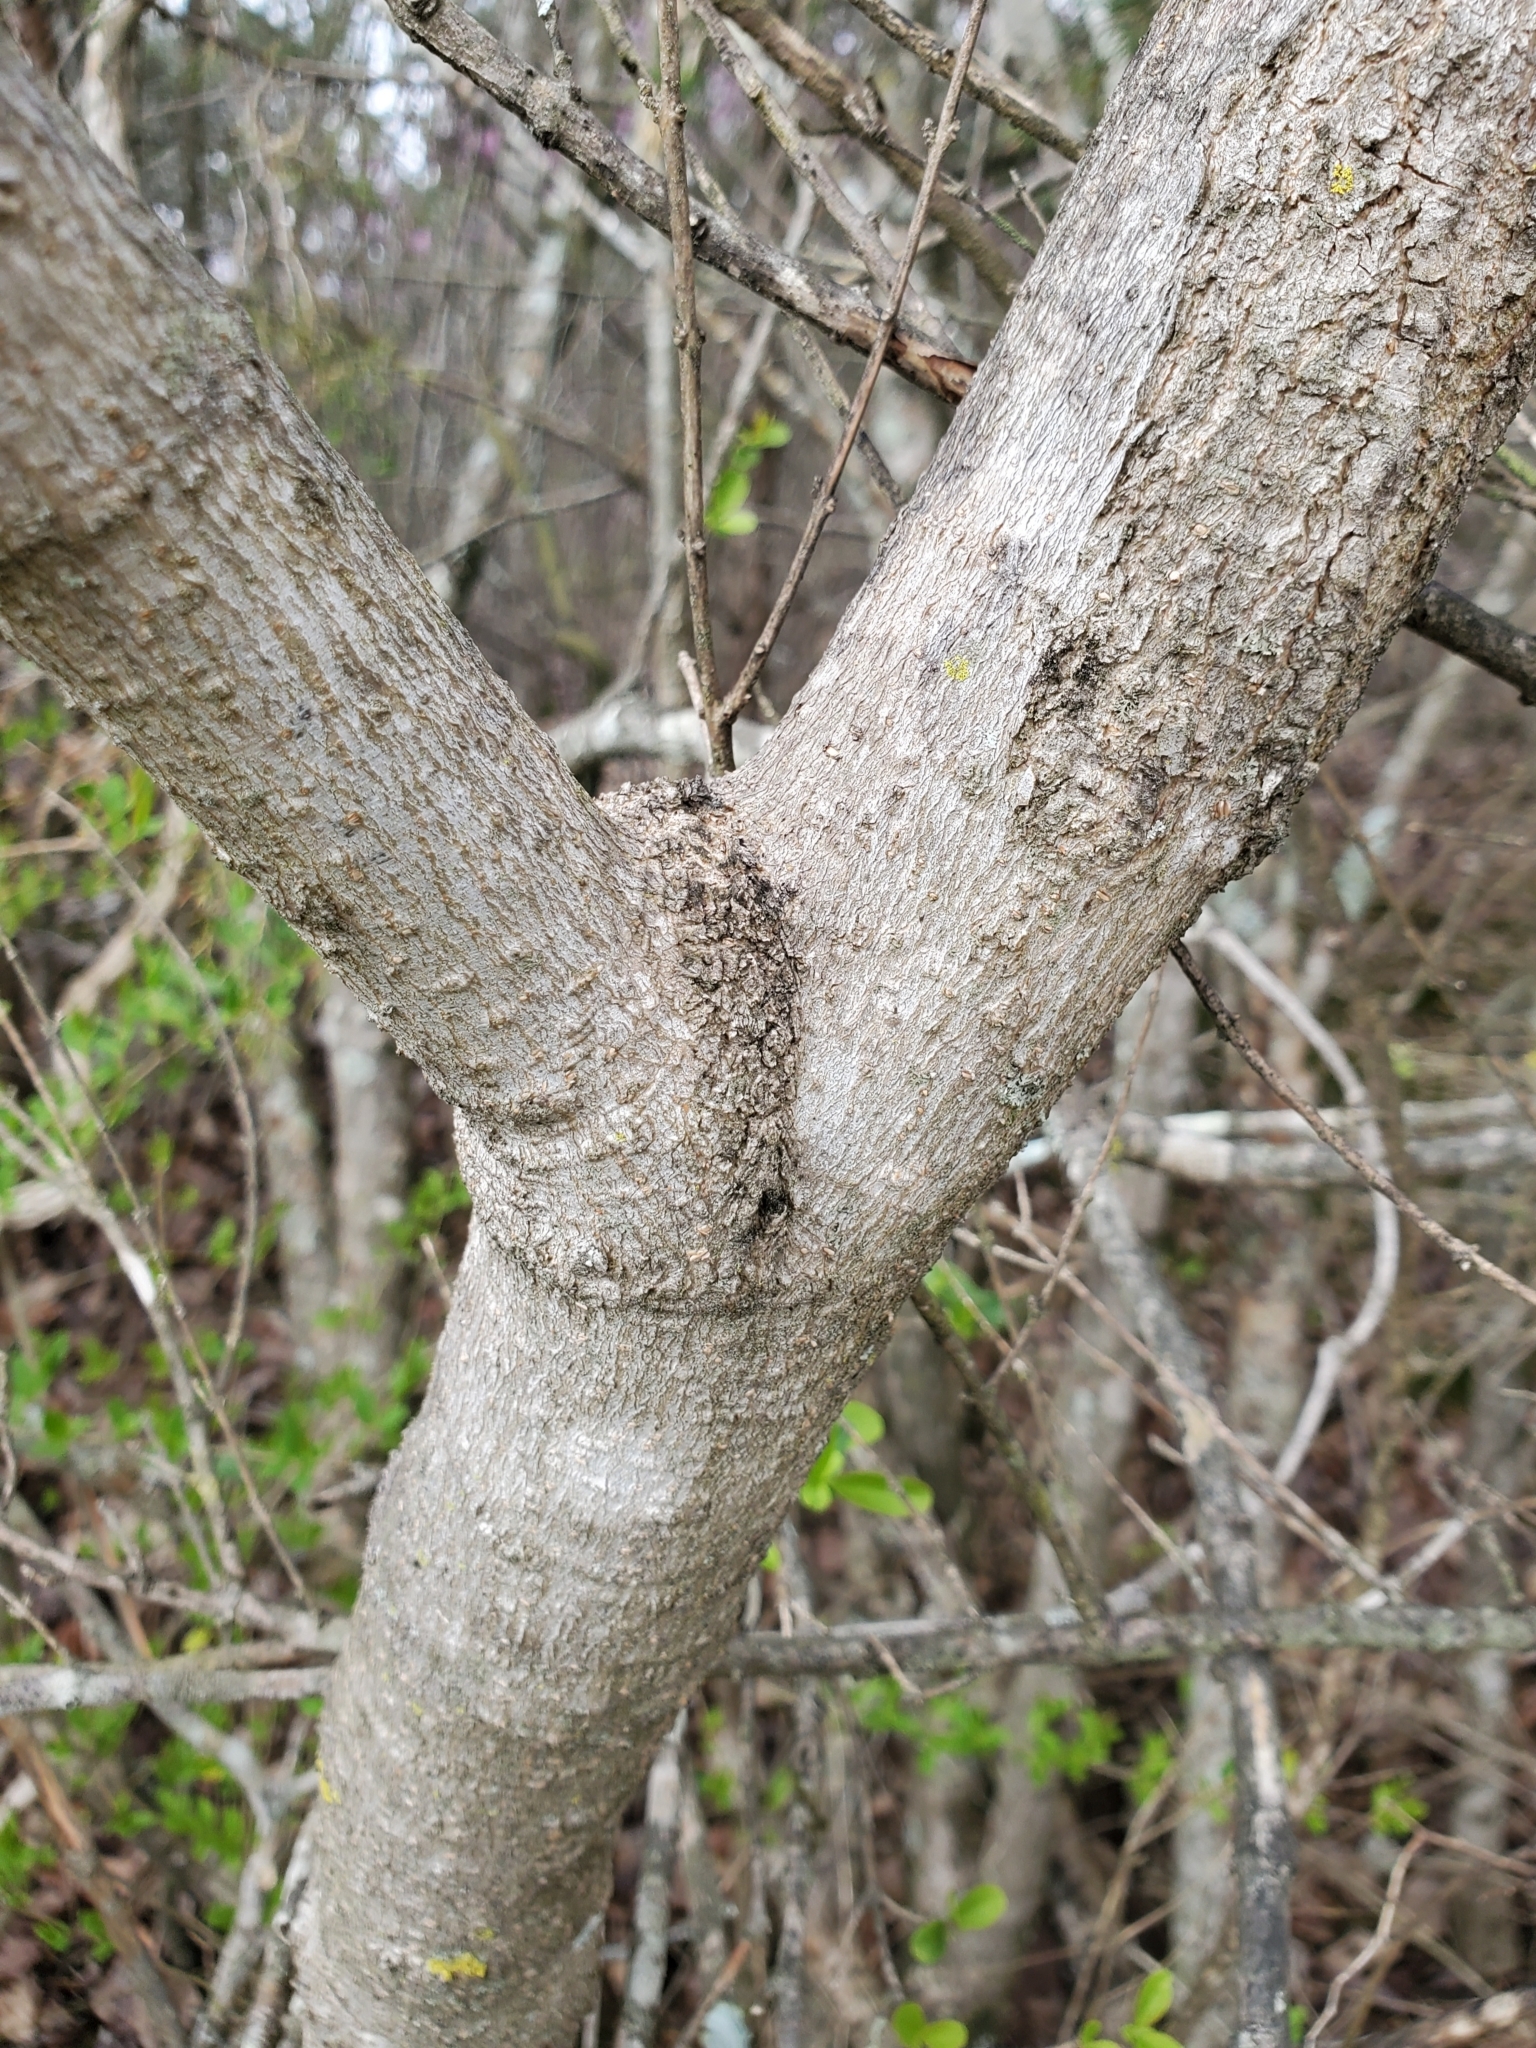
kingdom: Plantae
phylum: Tracheophyta
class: Magnoliopsida
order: Sapindales
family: Sapindaceae
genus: Acer
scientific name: Acer negundo
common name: Ashleaf maple
